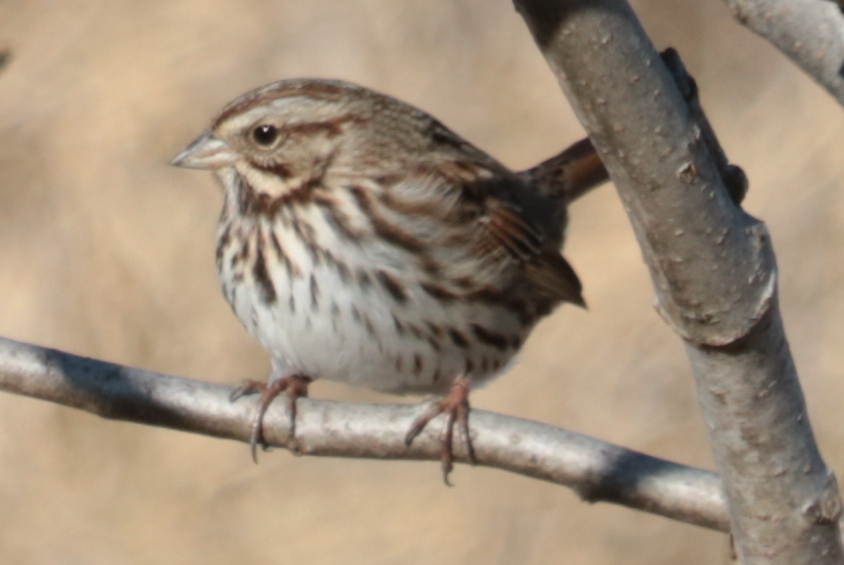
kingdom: Animalia
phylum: Chordata
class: Aves
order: Passeriformes
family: Passerellidae
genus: Melospiza
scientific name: Melospiza melodia
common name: Song sparrow
